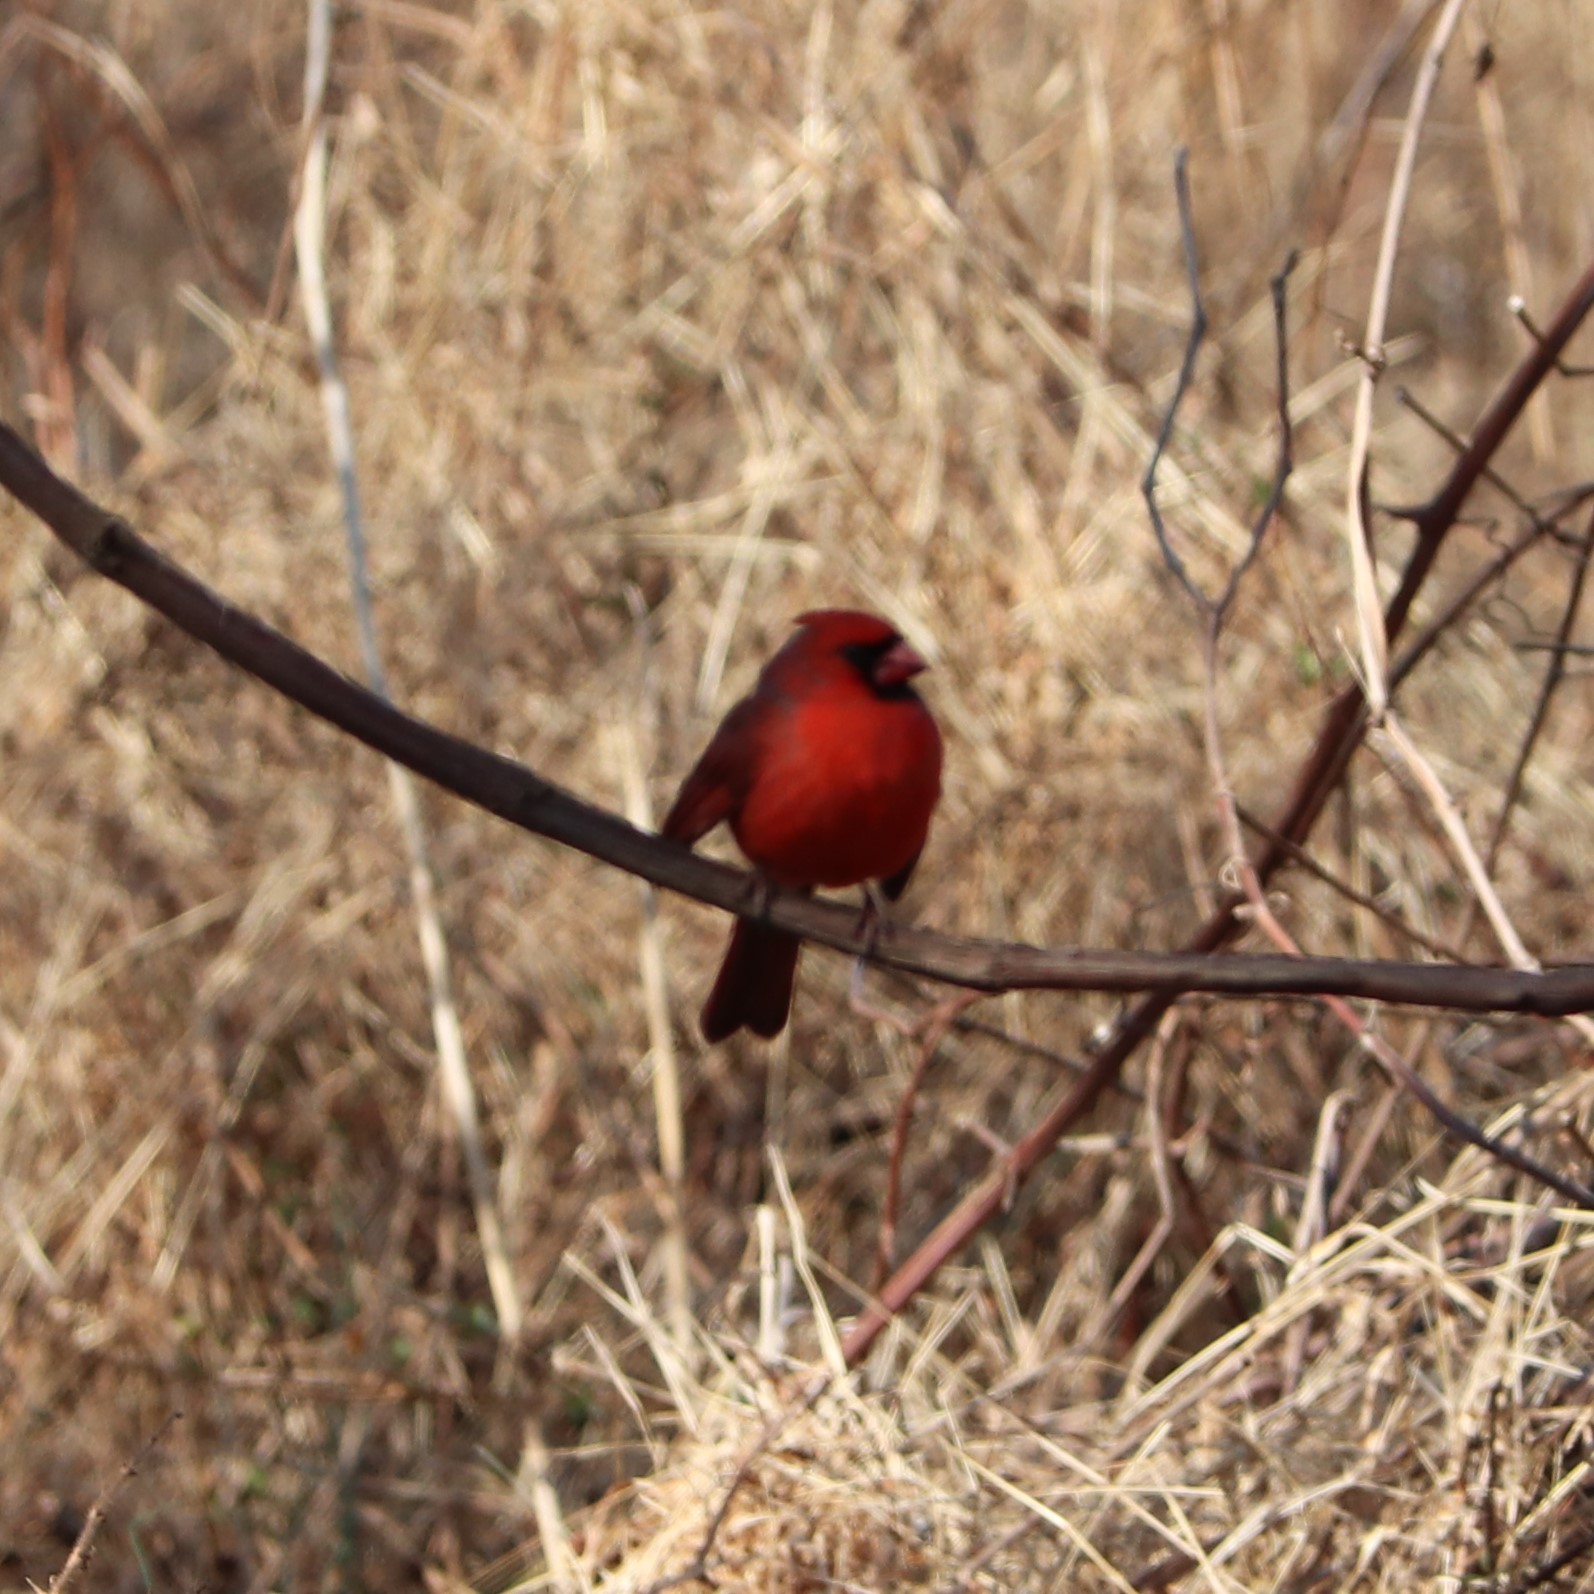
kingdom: Animalia
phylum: Chordata
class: Aves
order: Passeriformes
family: Cardinalidae
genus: Cardinalis
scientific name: Cardinalis cardinalis
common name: Northern cardinal
